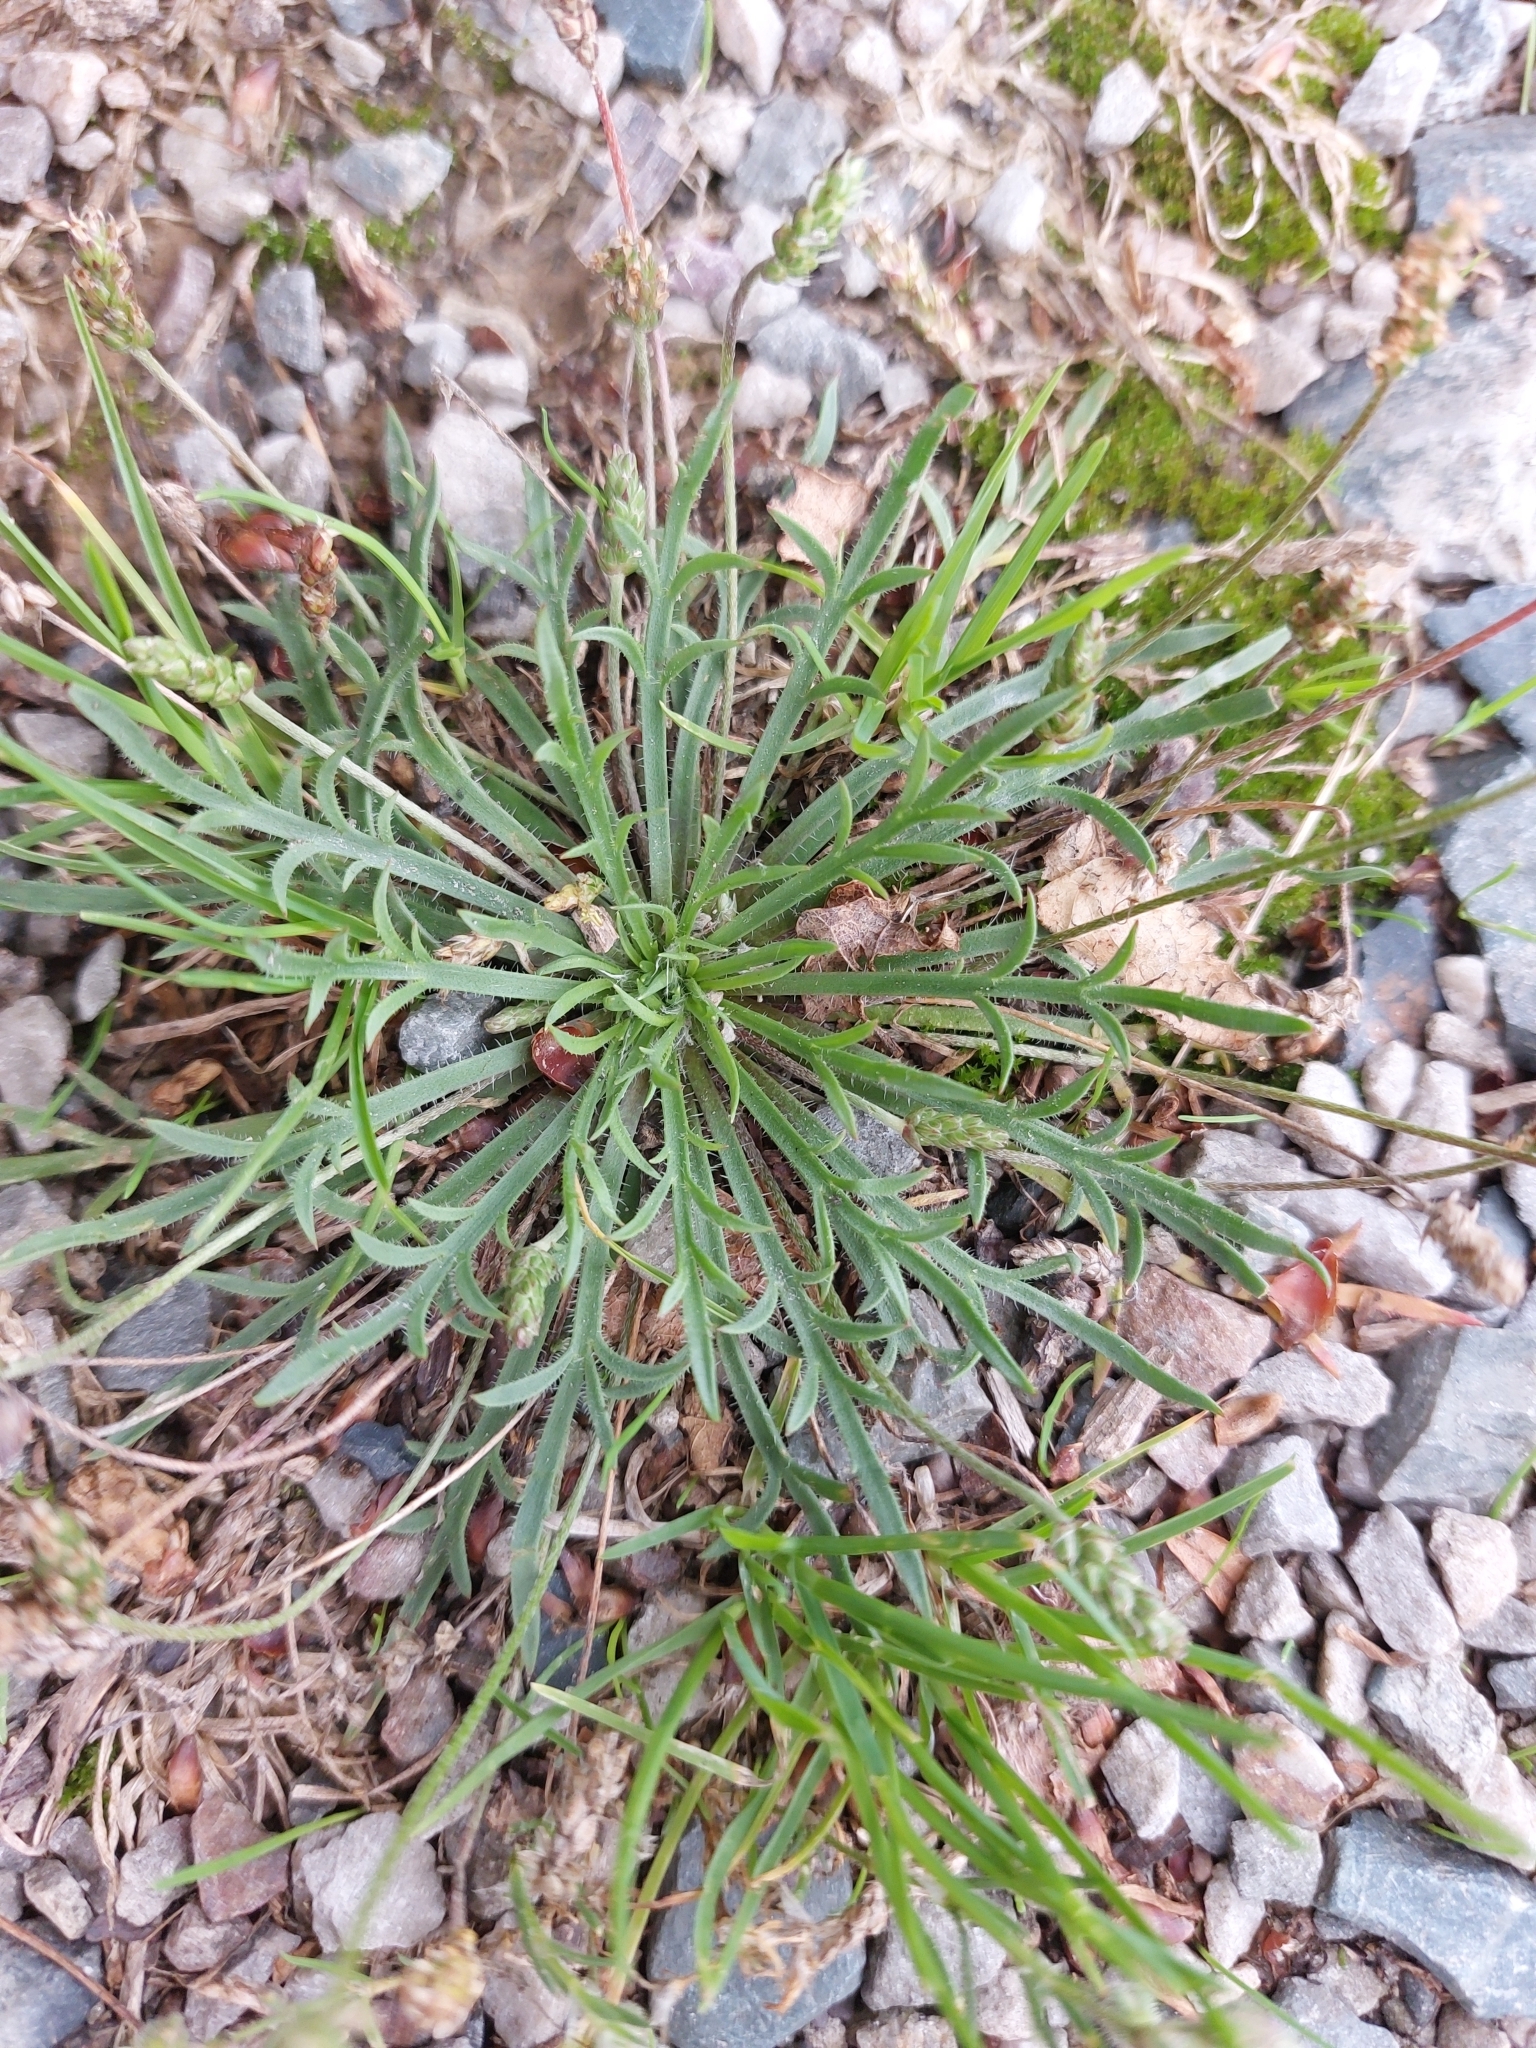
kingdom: Plantae
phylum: Tracheophyta
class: Magnoliopsida
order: Lamiales
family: Plantaginaceae
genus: Plantago
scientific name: Plantago coronopus
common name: Buck's-horn plantain
